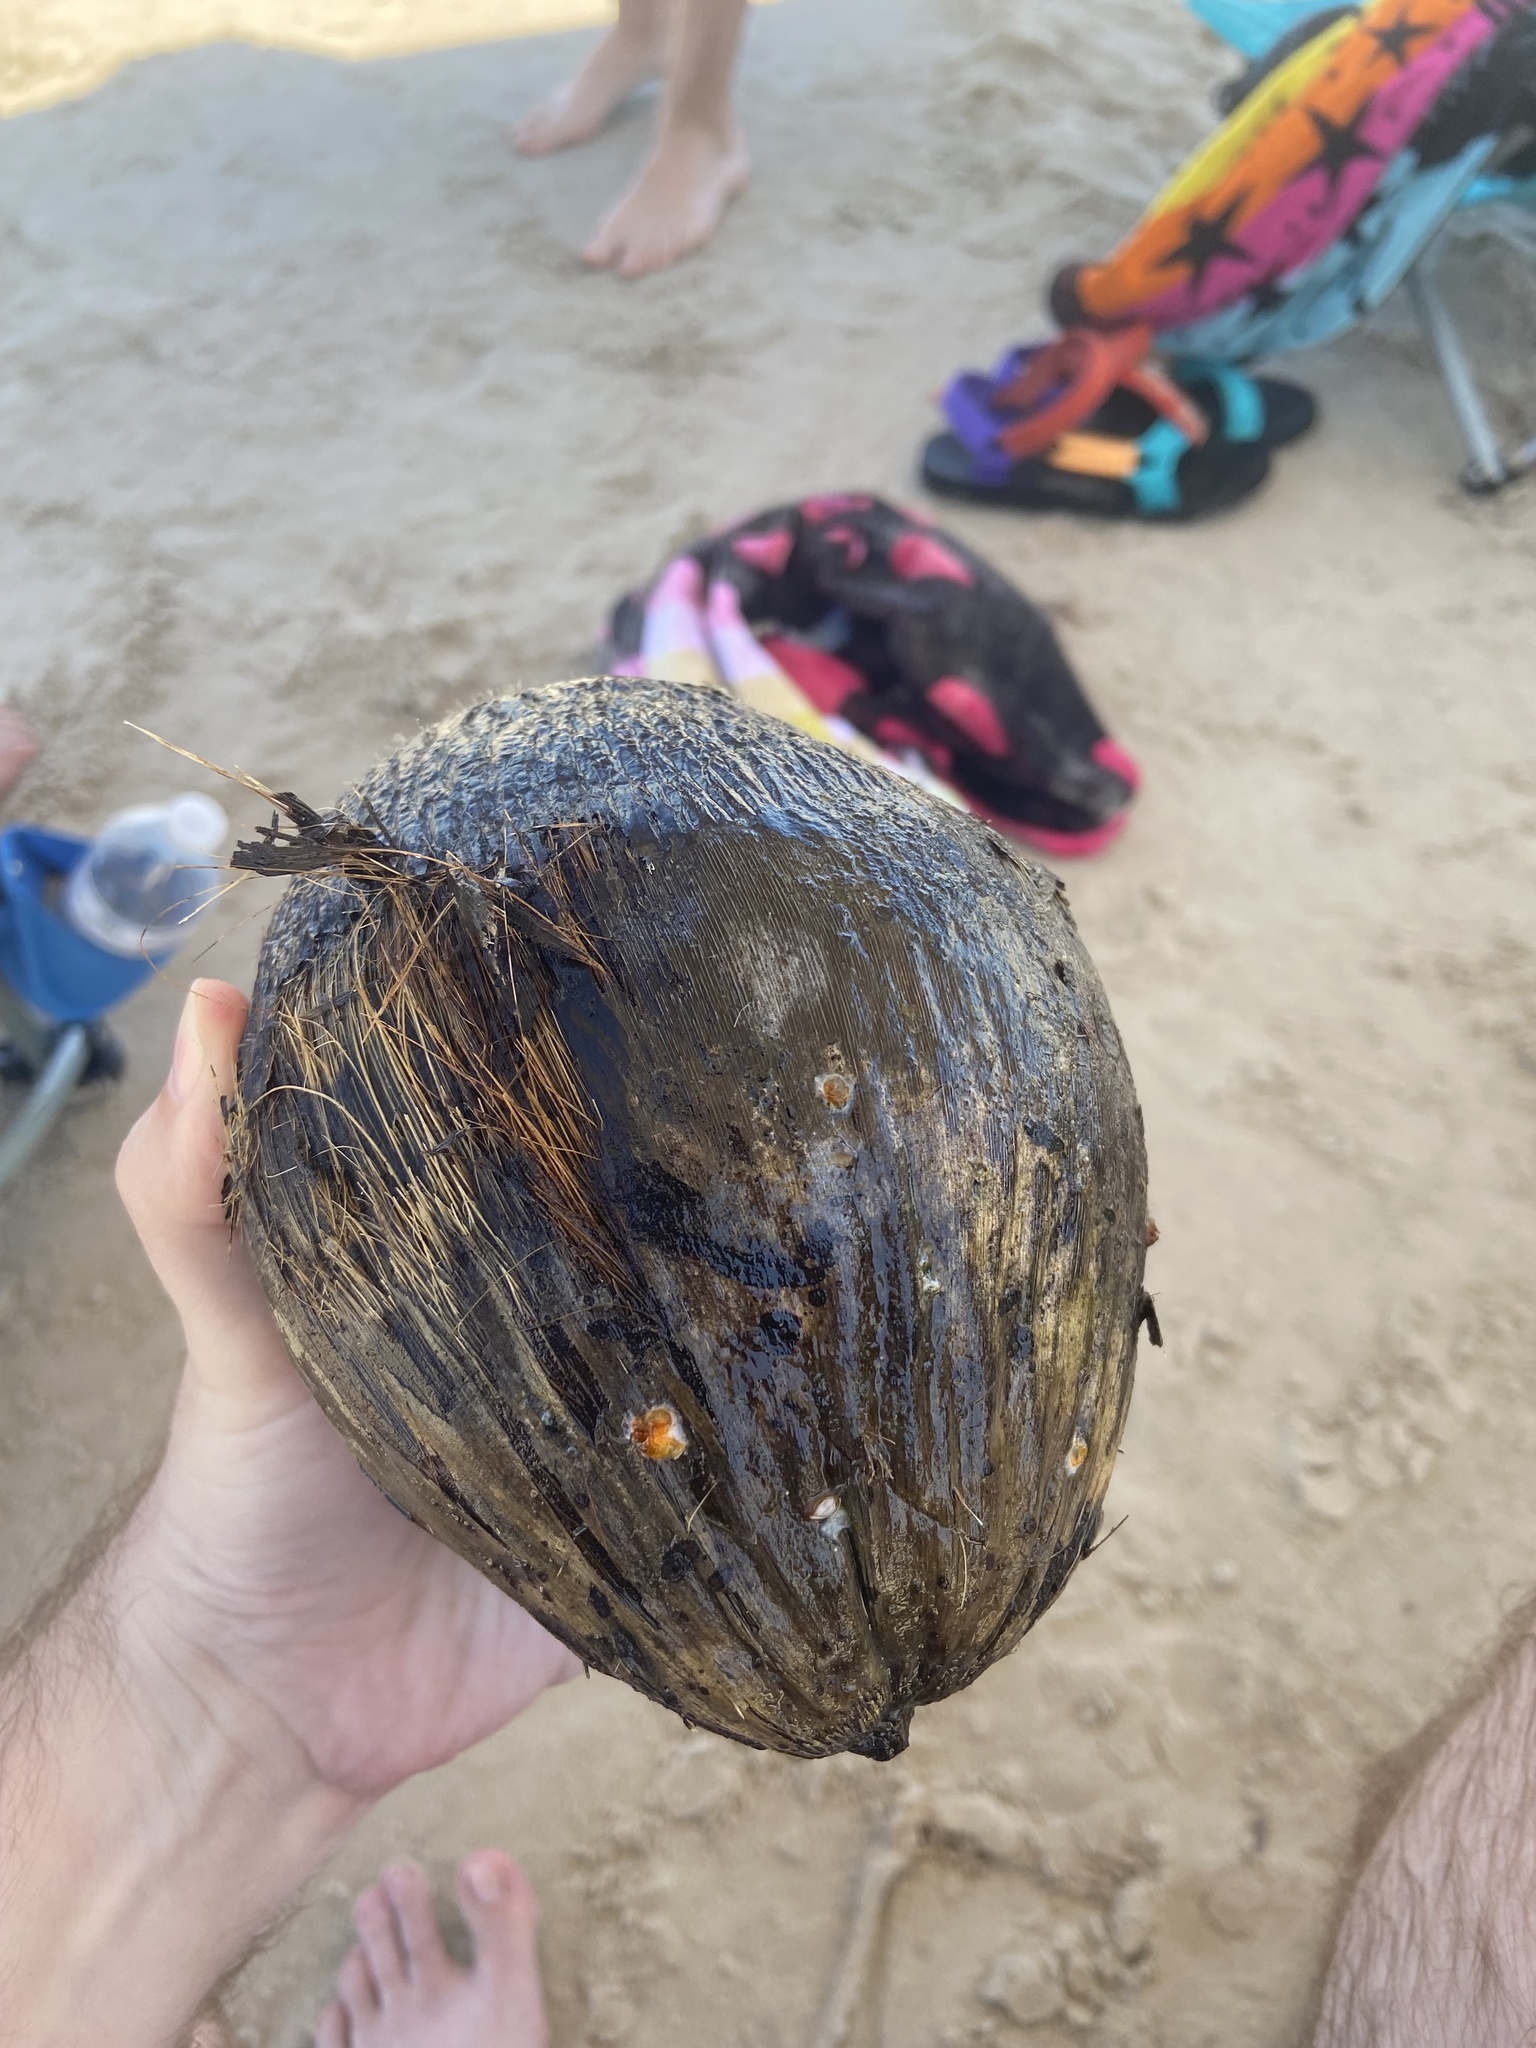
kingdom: Plantae
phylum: Tracheophyta
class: Liliopsida
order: Arecales
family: Arecaceae
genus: Cocos
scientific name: Cocos nucifera
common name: Coconut palm
